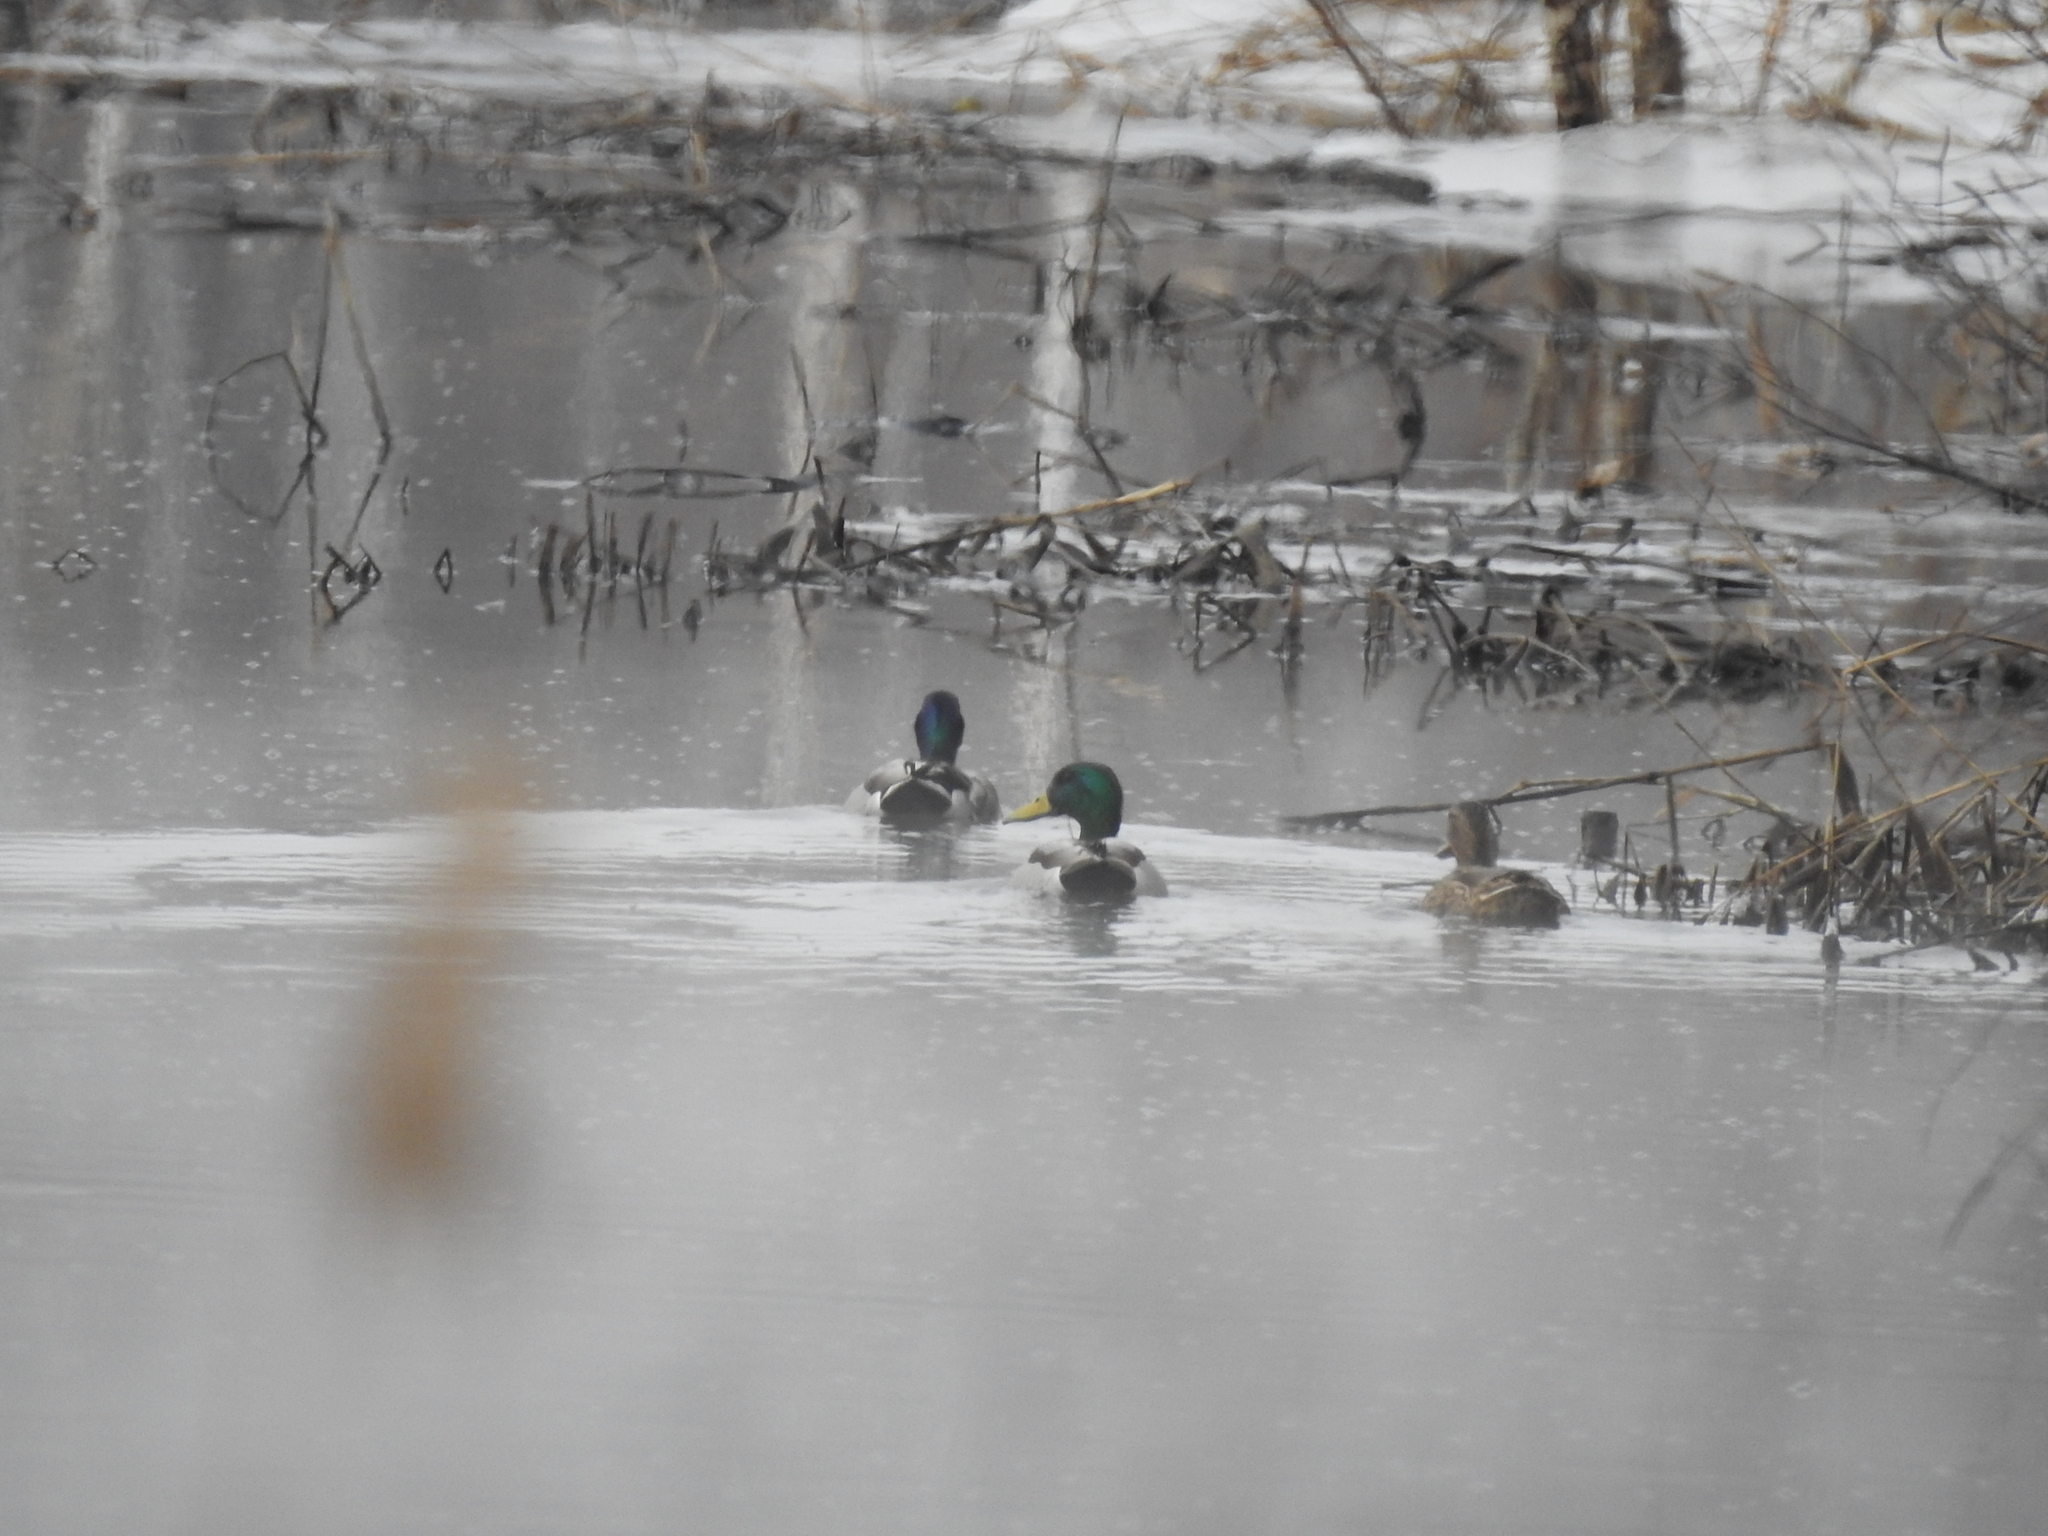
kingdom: Animalia
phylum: Chordata
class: Aves
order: Anseriformes
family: Anatidae
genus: Anas
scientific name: Anas platyrhynchos
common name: Mallard
